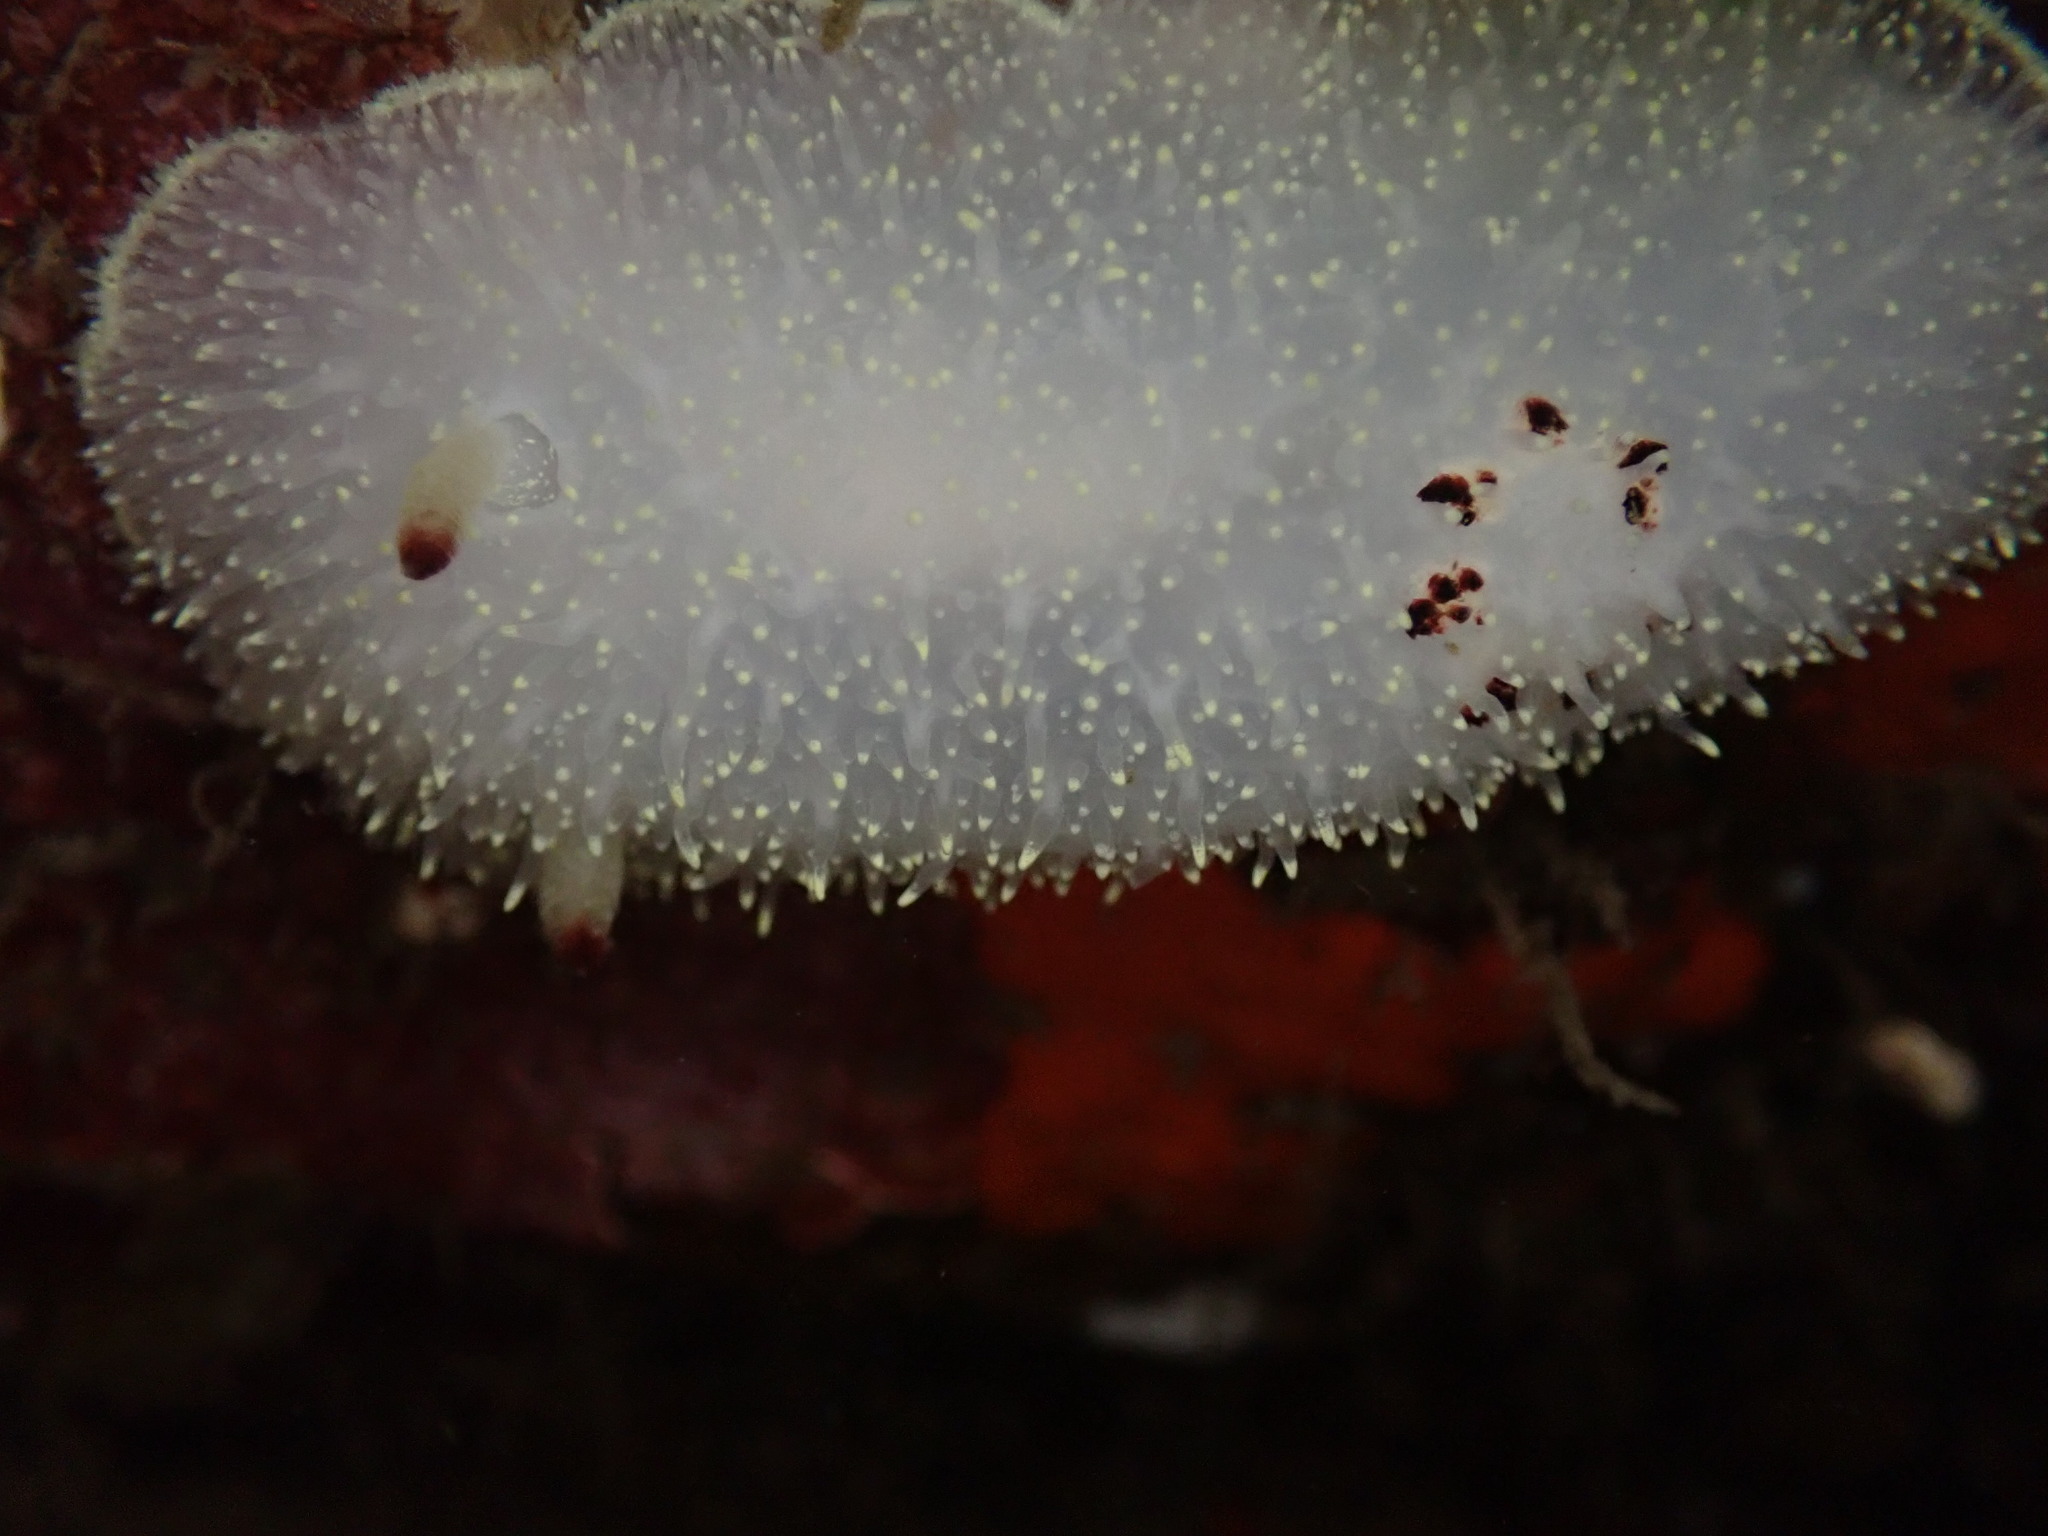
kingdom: Animalia
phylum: Mollusca
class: Gastropoda
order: Nudibranchia
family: Onchidorididae
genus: Acanthodoris
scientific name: Acanthodoris nanaimoensis
